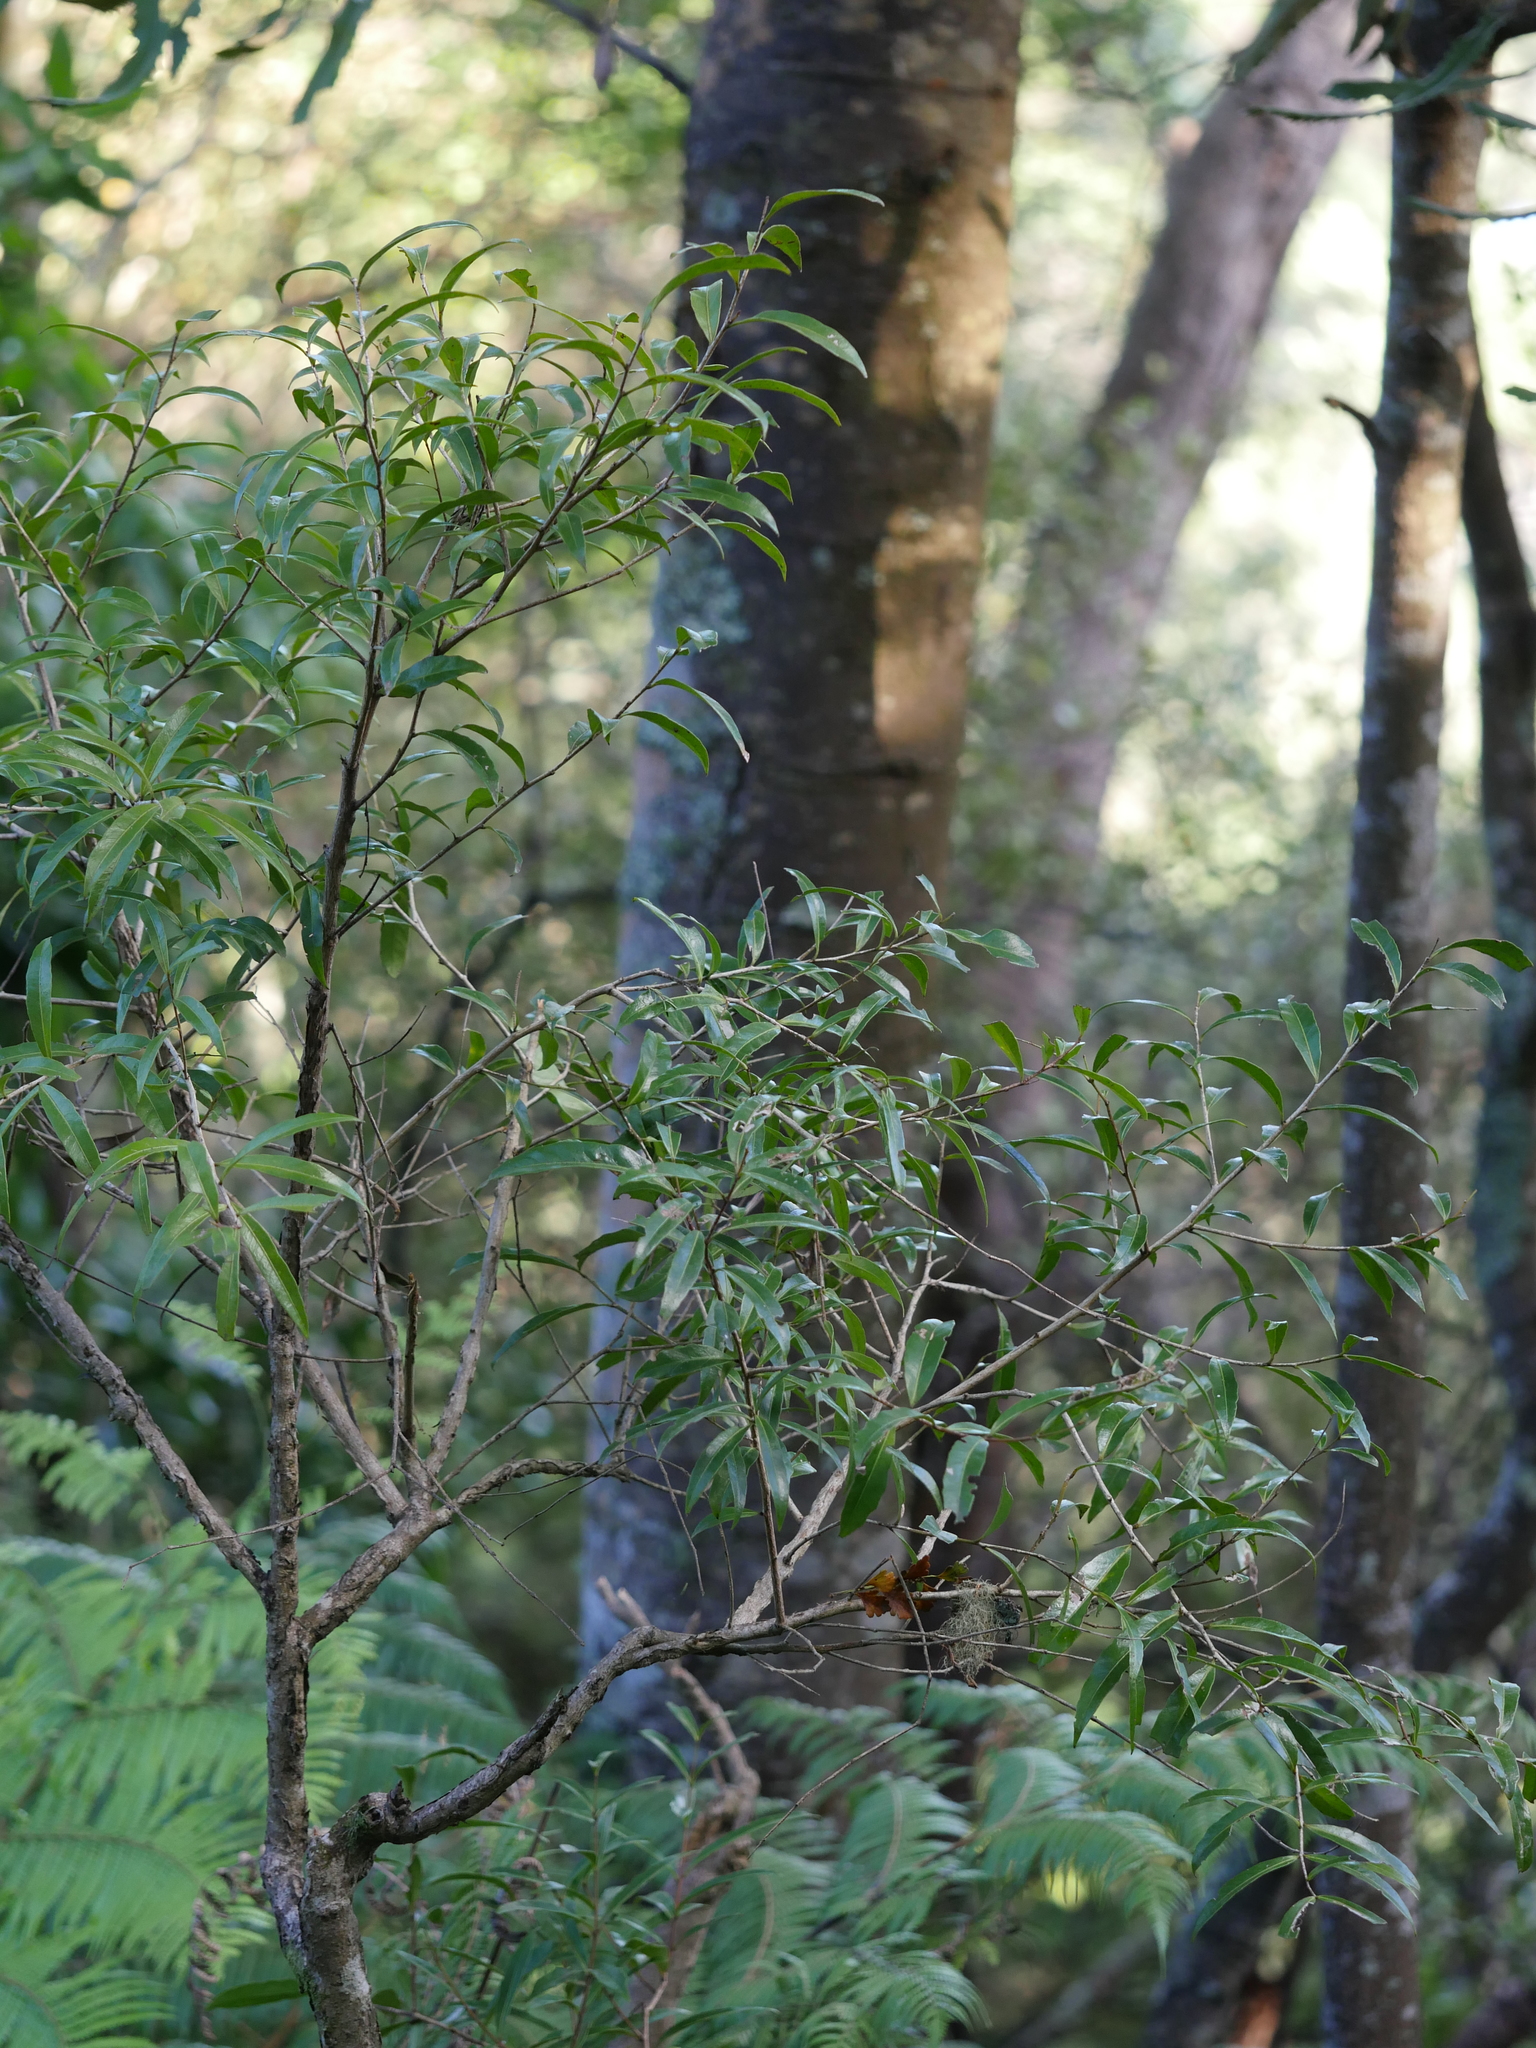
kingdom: Plantae
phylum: Tracheophyta
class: Magnoliopsida
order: Santalales
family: Nanodeaceae
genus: Mida
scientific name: Mida salicifolia
